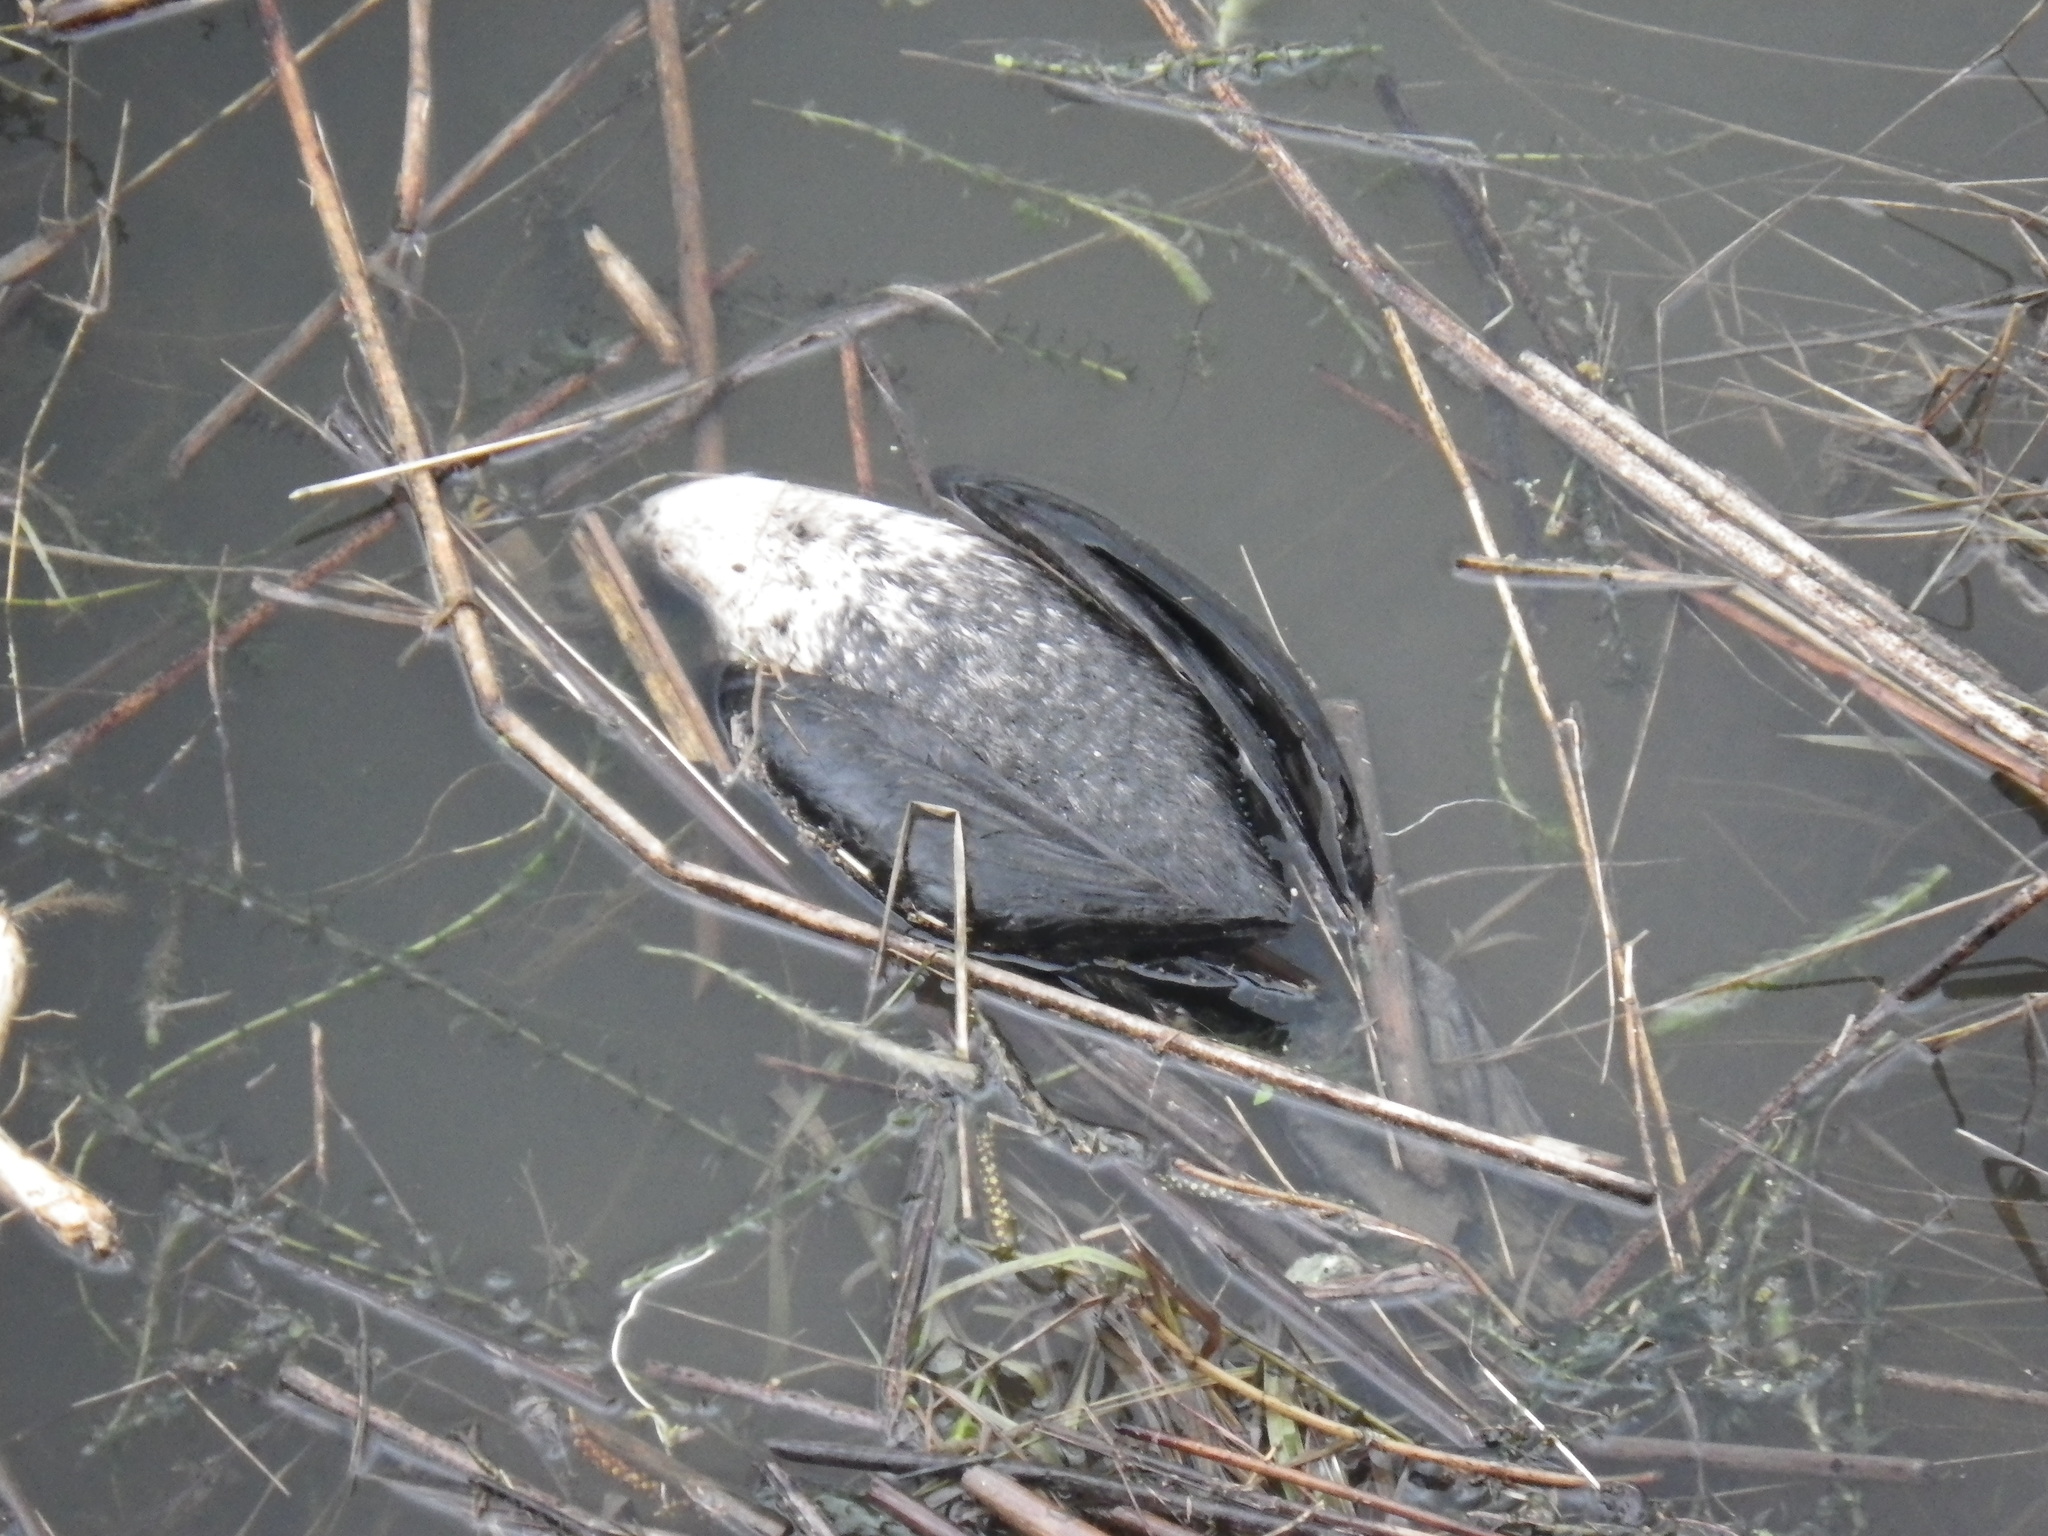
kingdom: Animalia
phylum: Chordata
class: Aves
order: Suliformes
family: Phalacrocoracidae
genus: Phalacrocorax
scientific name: Phalacrocorax auritus
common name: Double-crested cormorant
